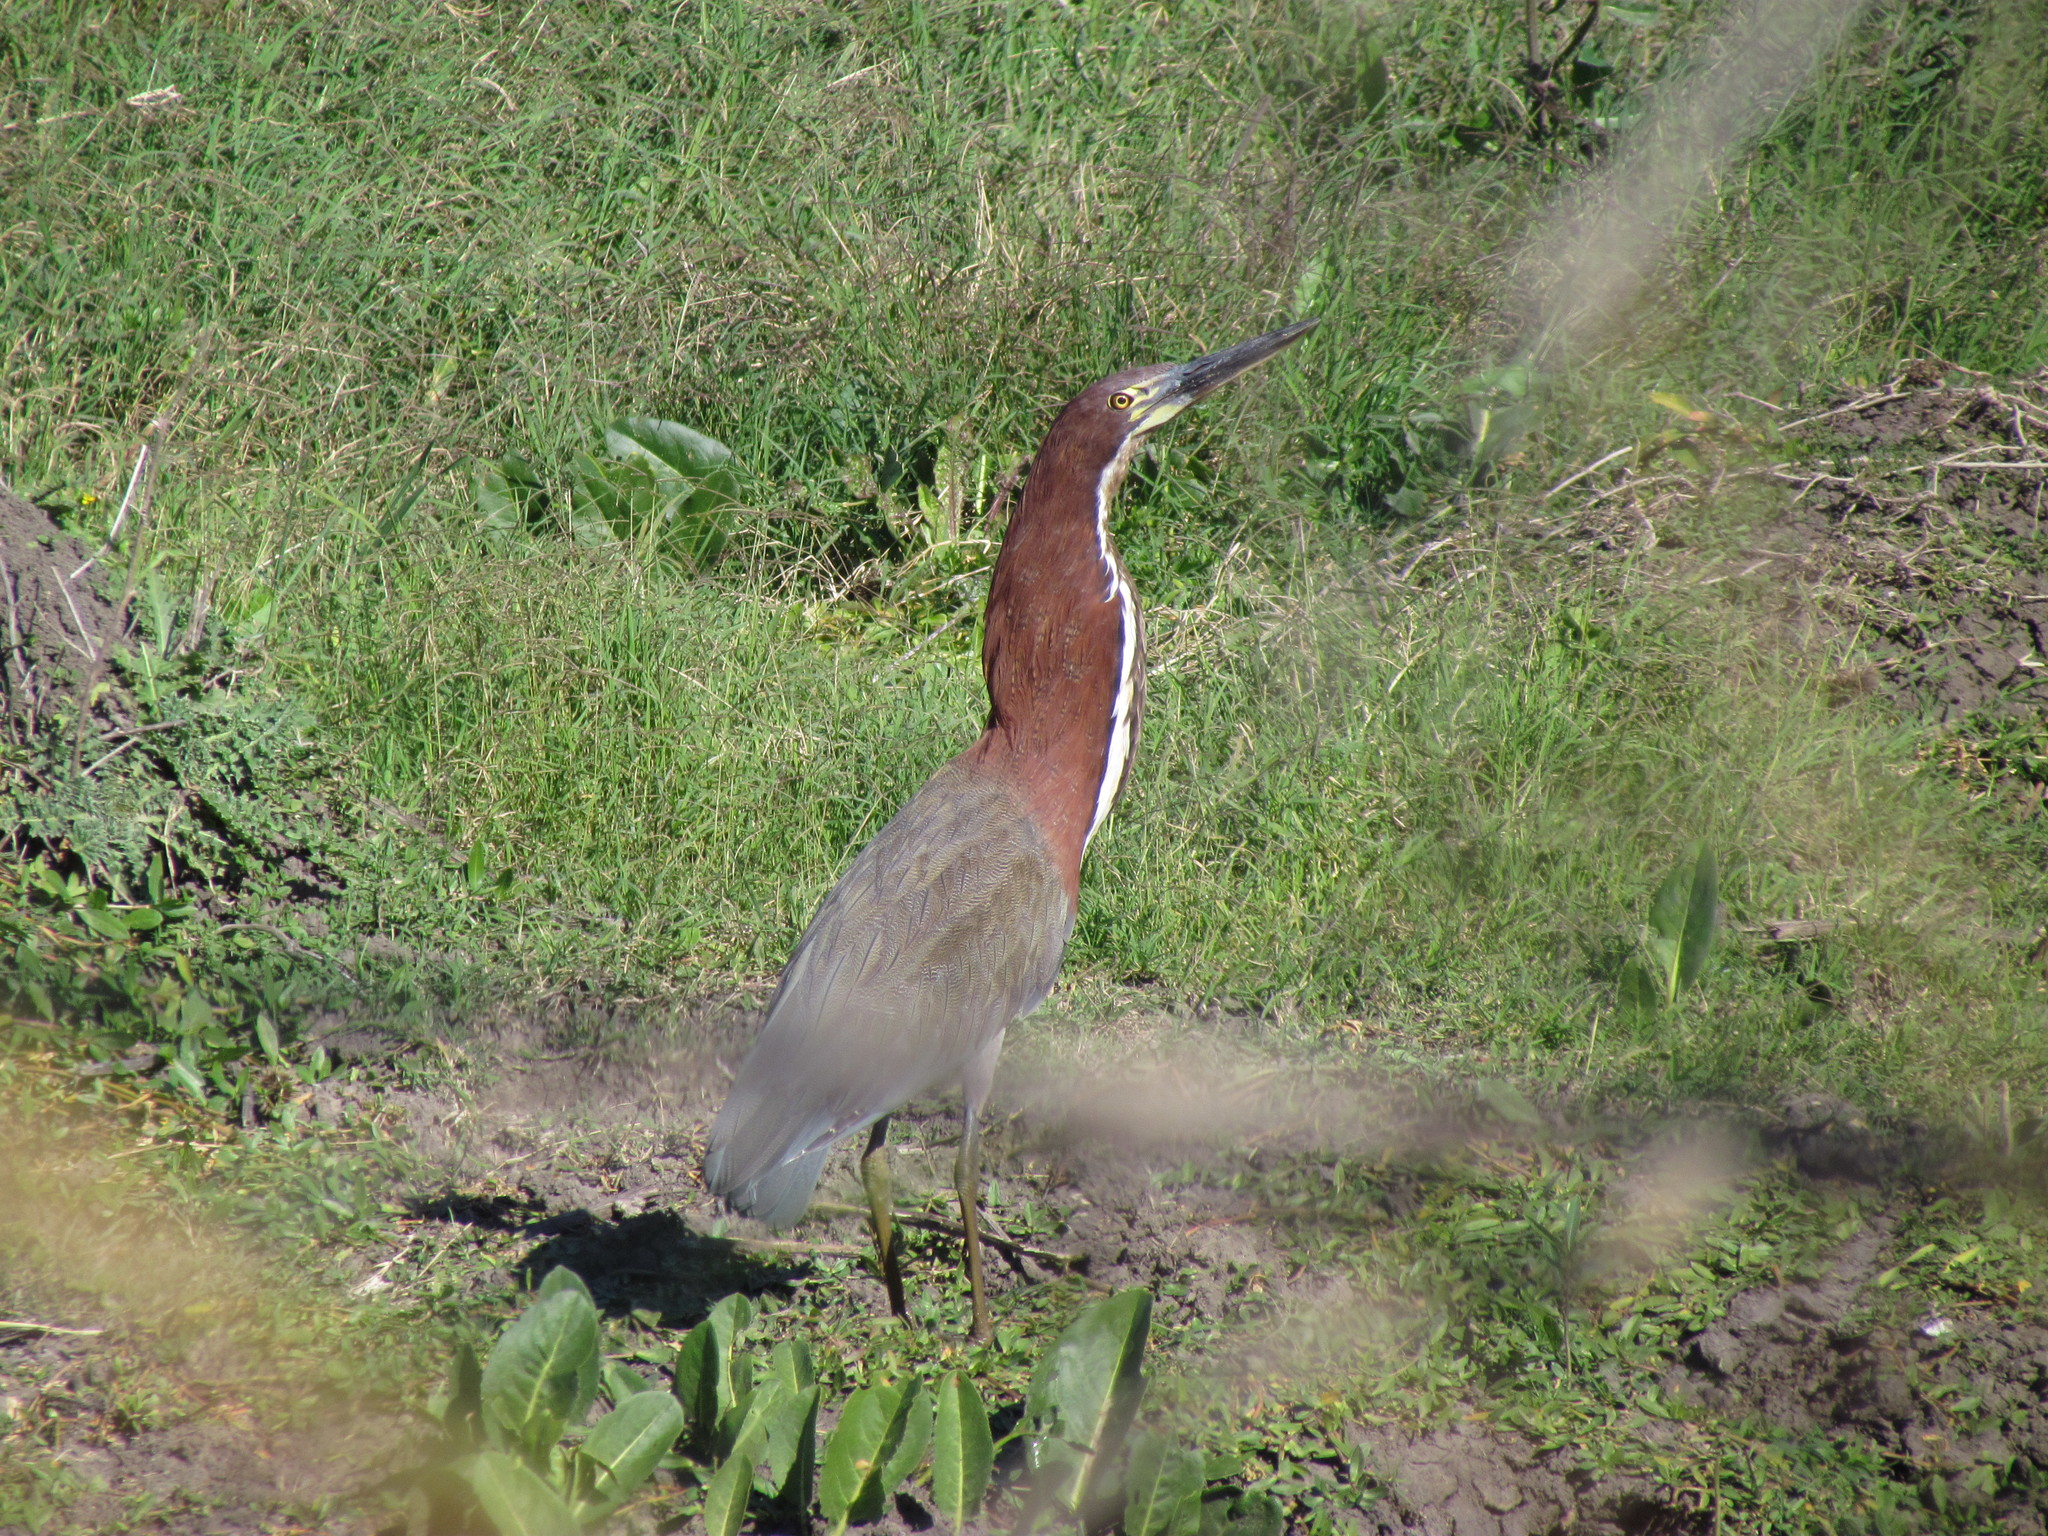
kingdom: Animalia
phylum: Chordata
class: Aves
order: Pelecaniformes
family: Ardeidae
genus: Tigrisoma
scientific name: Tigrisoma lineatum
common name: Rufescent tiger-heron
